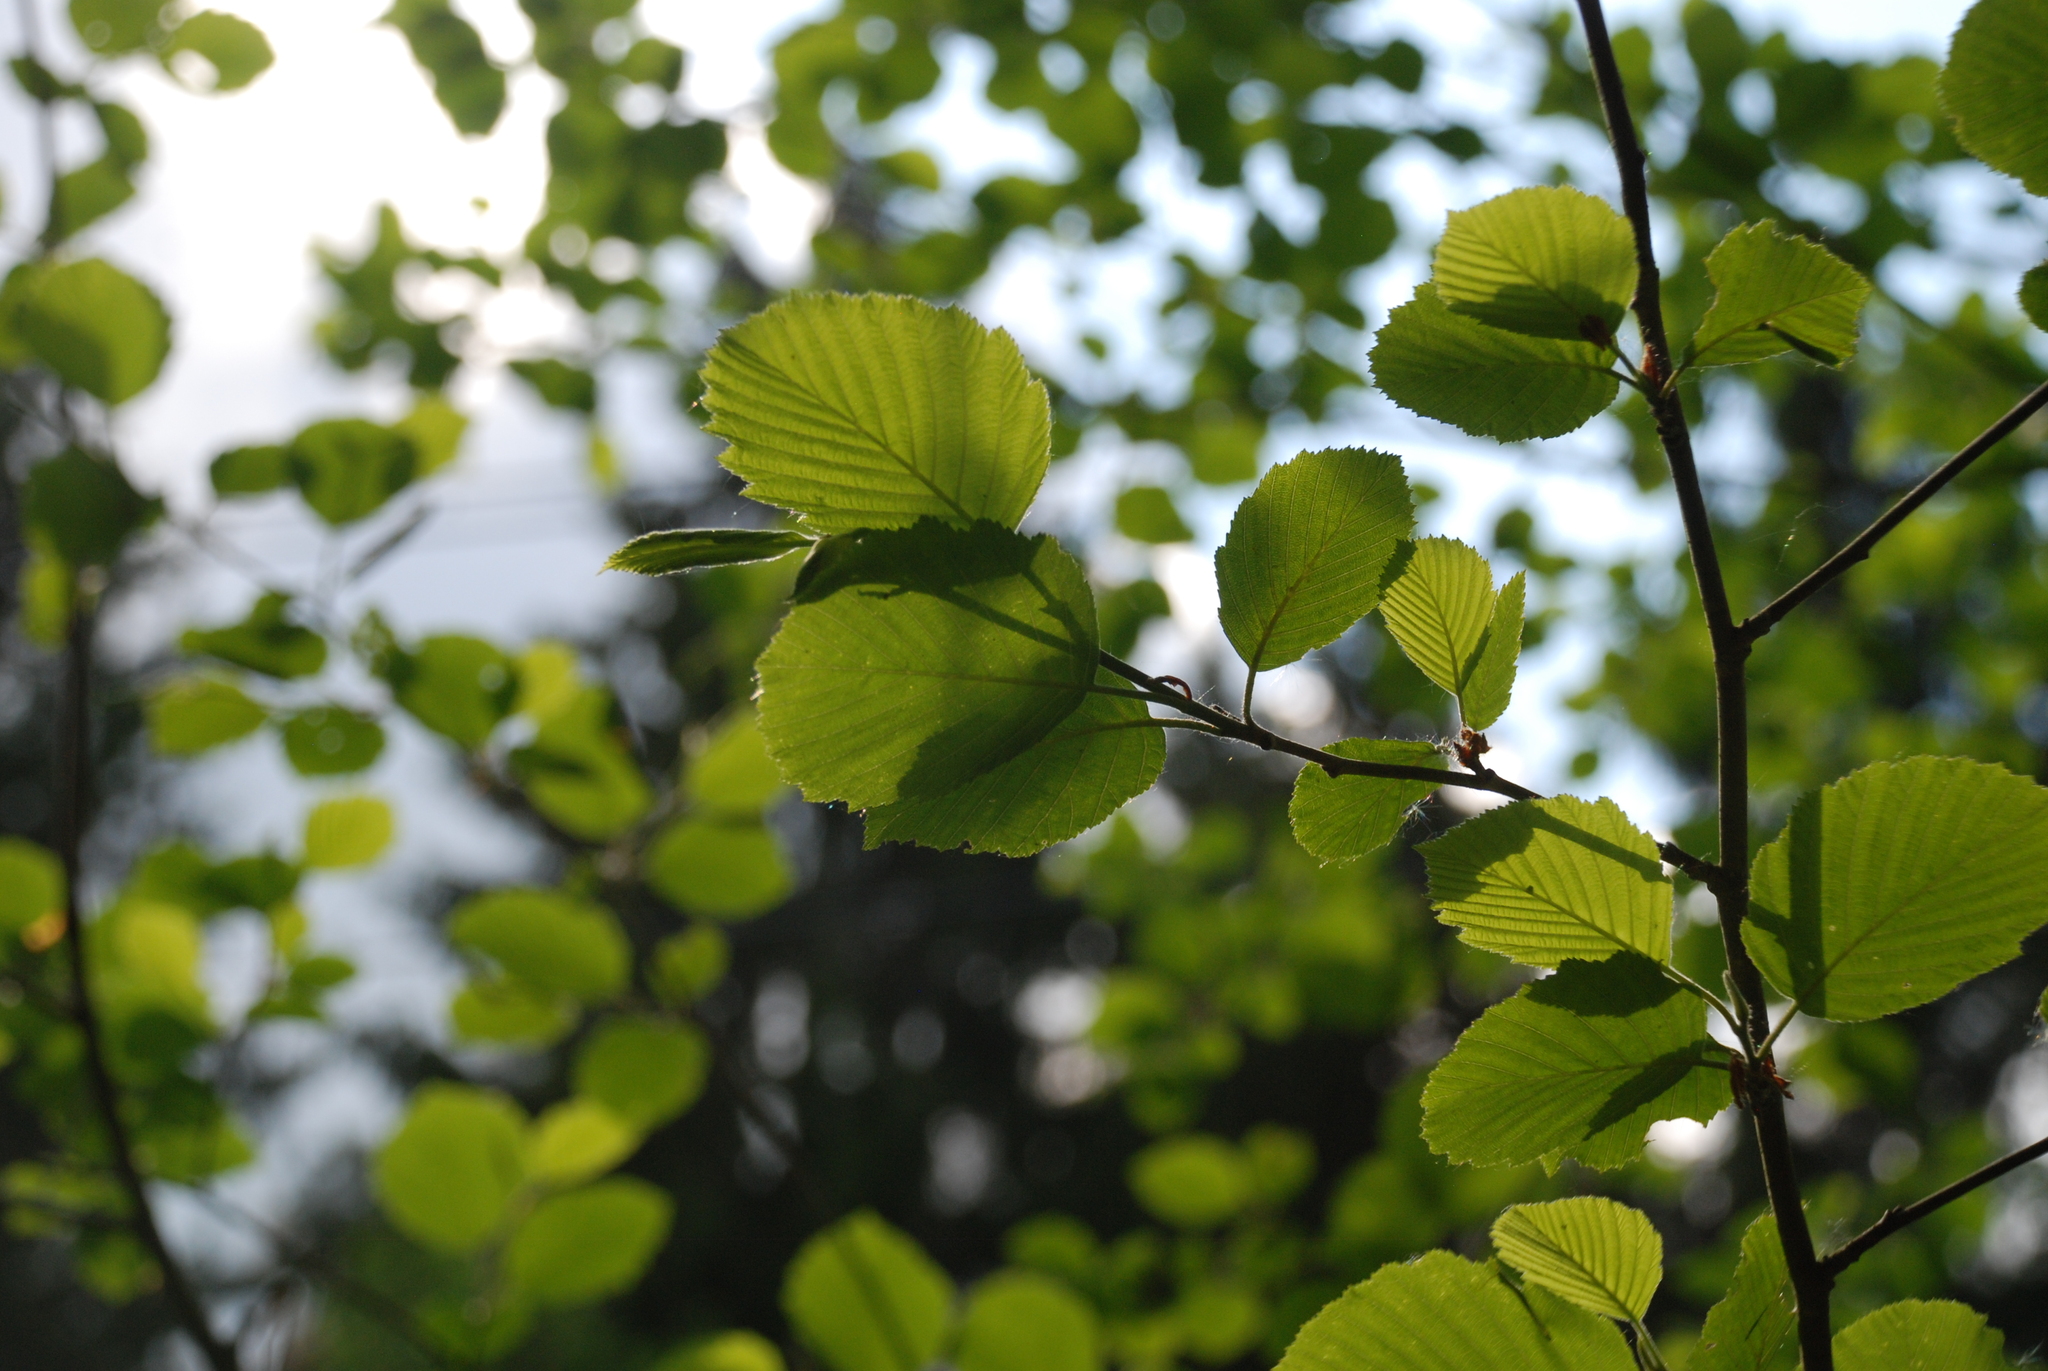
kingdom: Plantae
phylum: Tracheophyta
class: Magnoliopsida
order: Fagales
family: Betulaceae
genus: Alnus
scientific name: Alnus incana
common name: Grey alder
